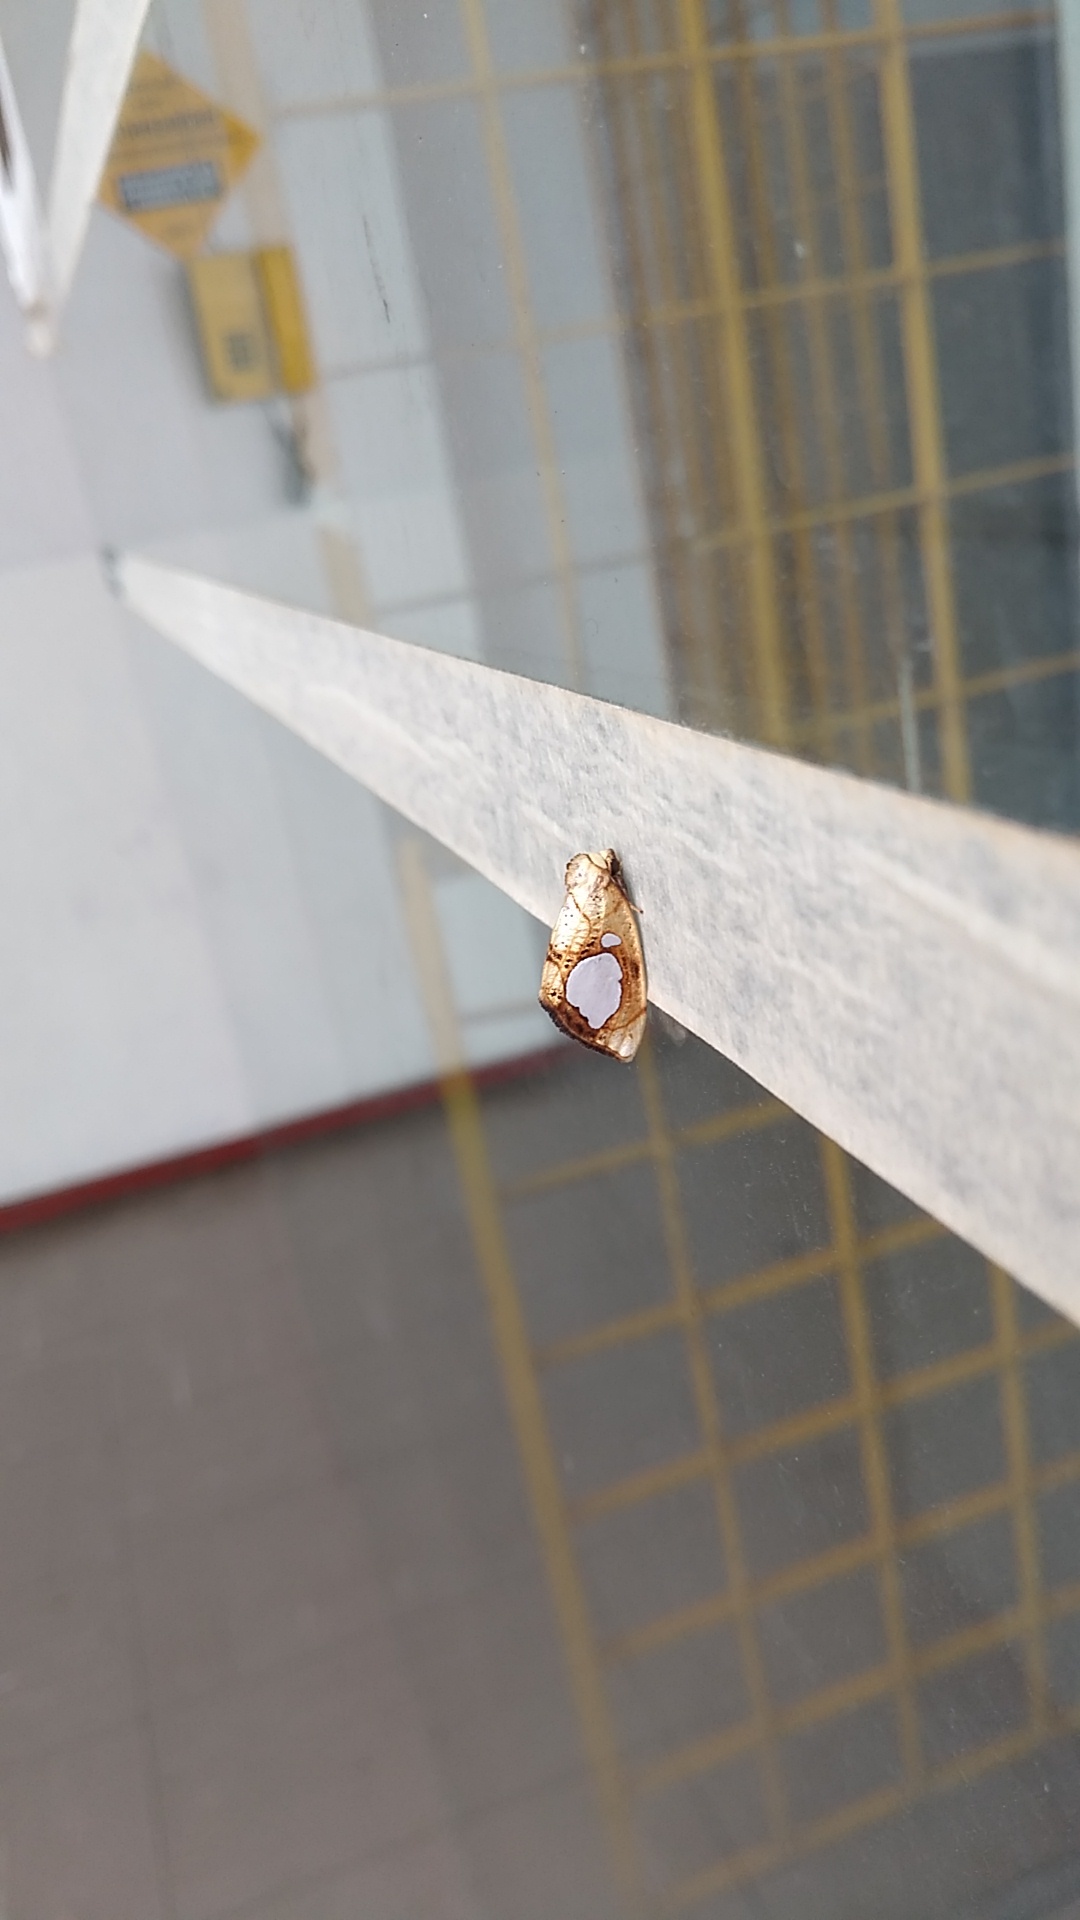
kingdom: Animalia
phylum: Arthropoda
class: Insecta
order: Lepidoptera
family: Noctuidae
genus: Basilodes
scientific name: Basilodes philobia
